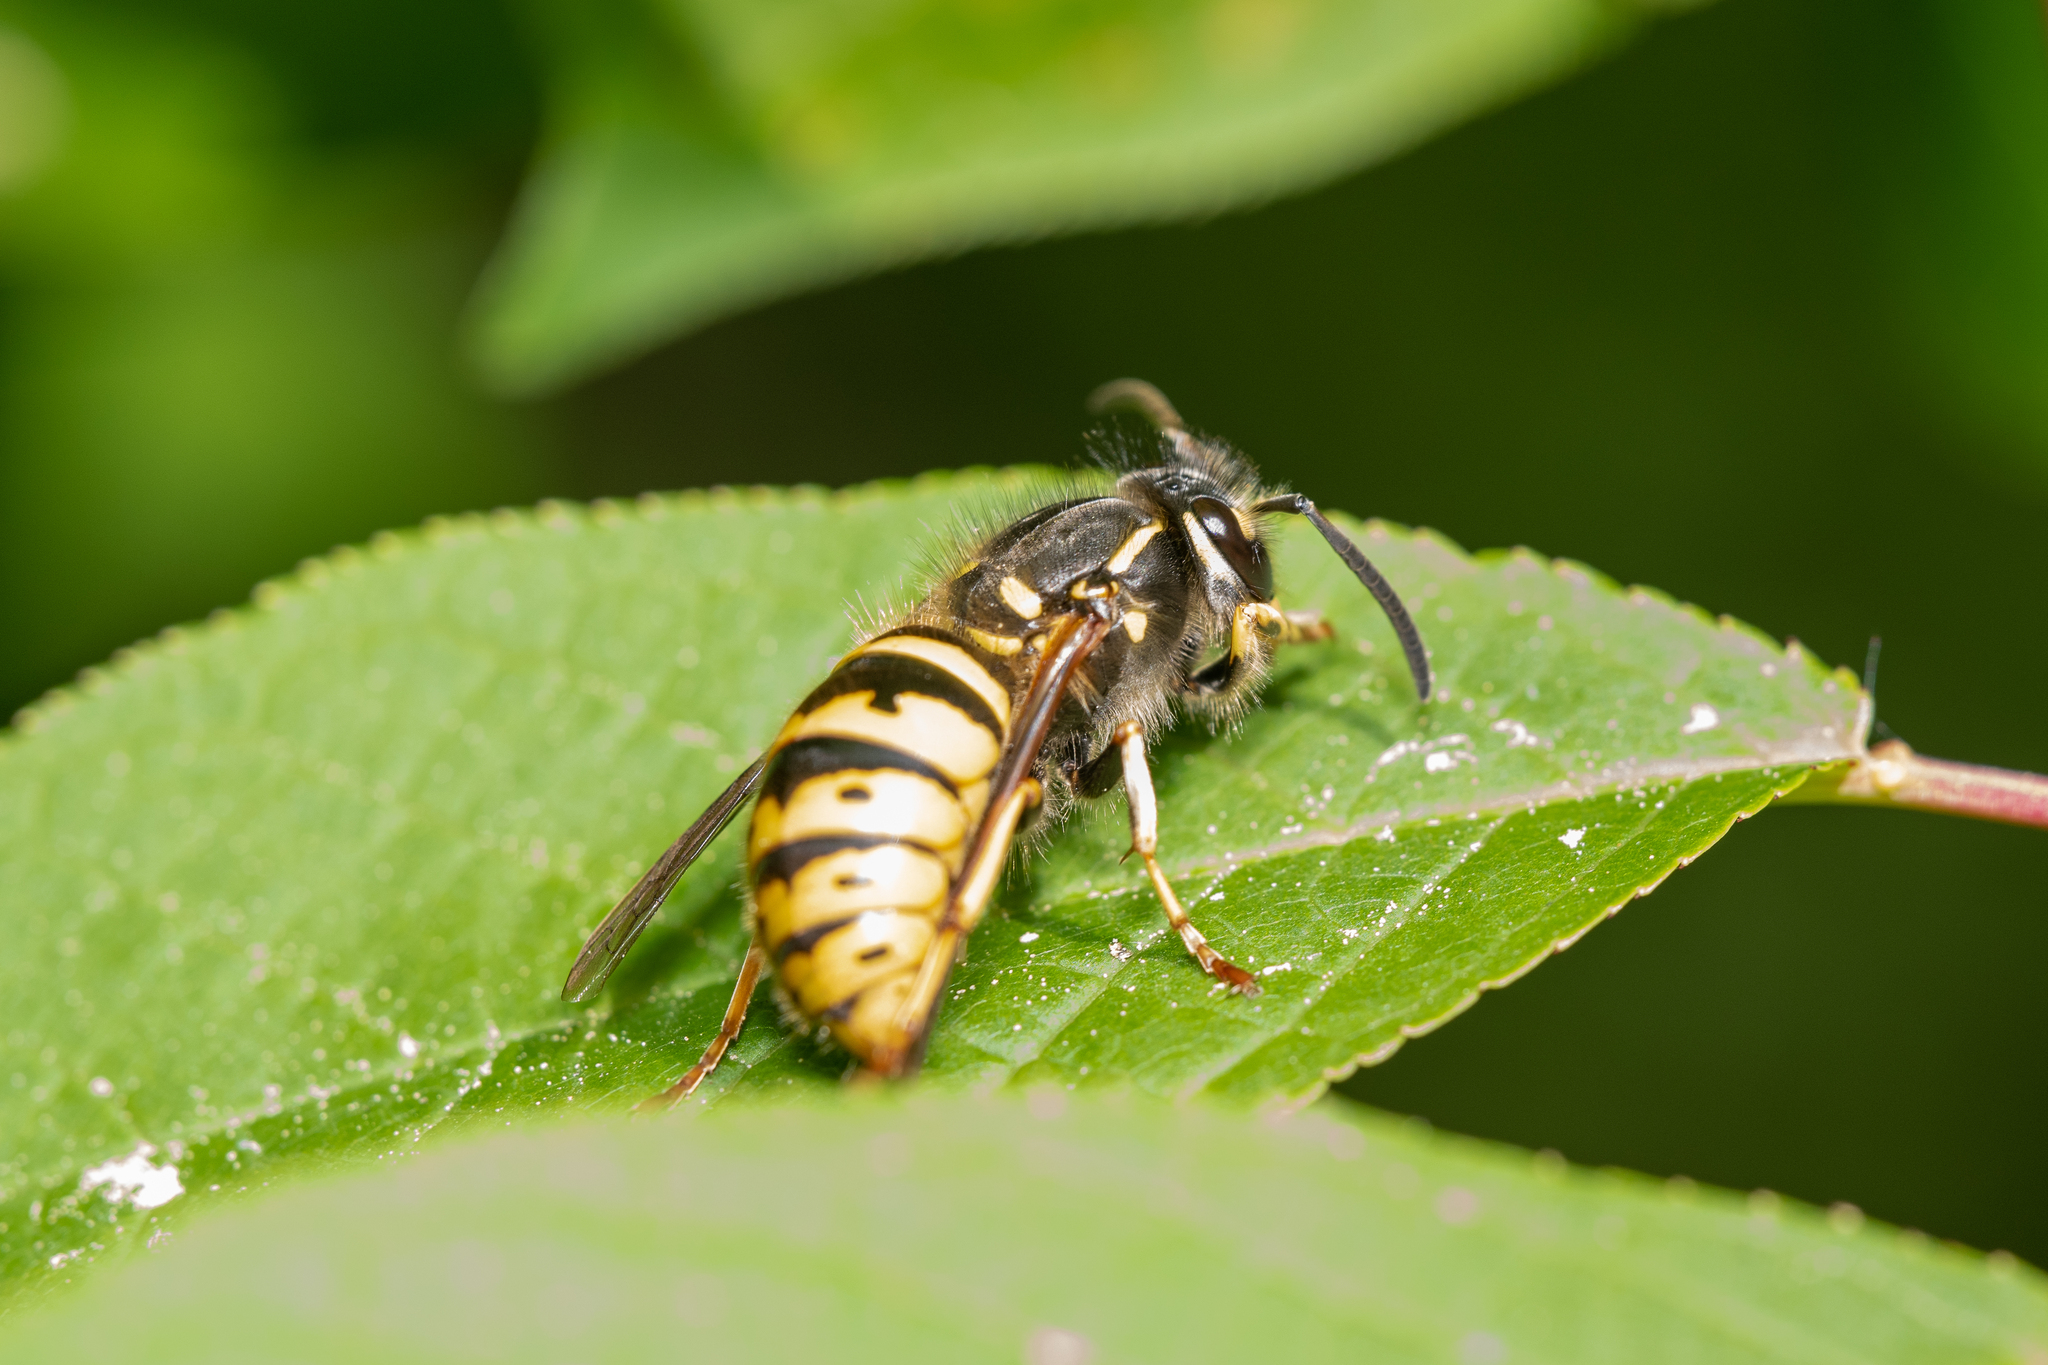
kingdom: Animalia
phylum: Arthropoda
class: Insecta
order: Hymenoptera
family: Vespidae
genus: Vespula
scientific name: Vespula vulgaris
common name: Common wasp
